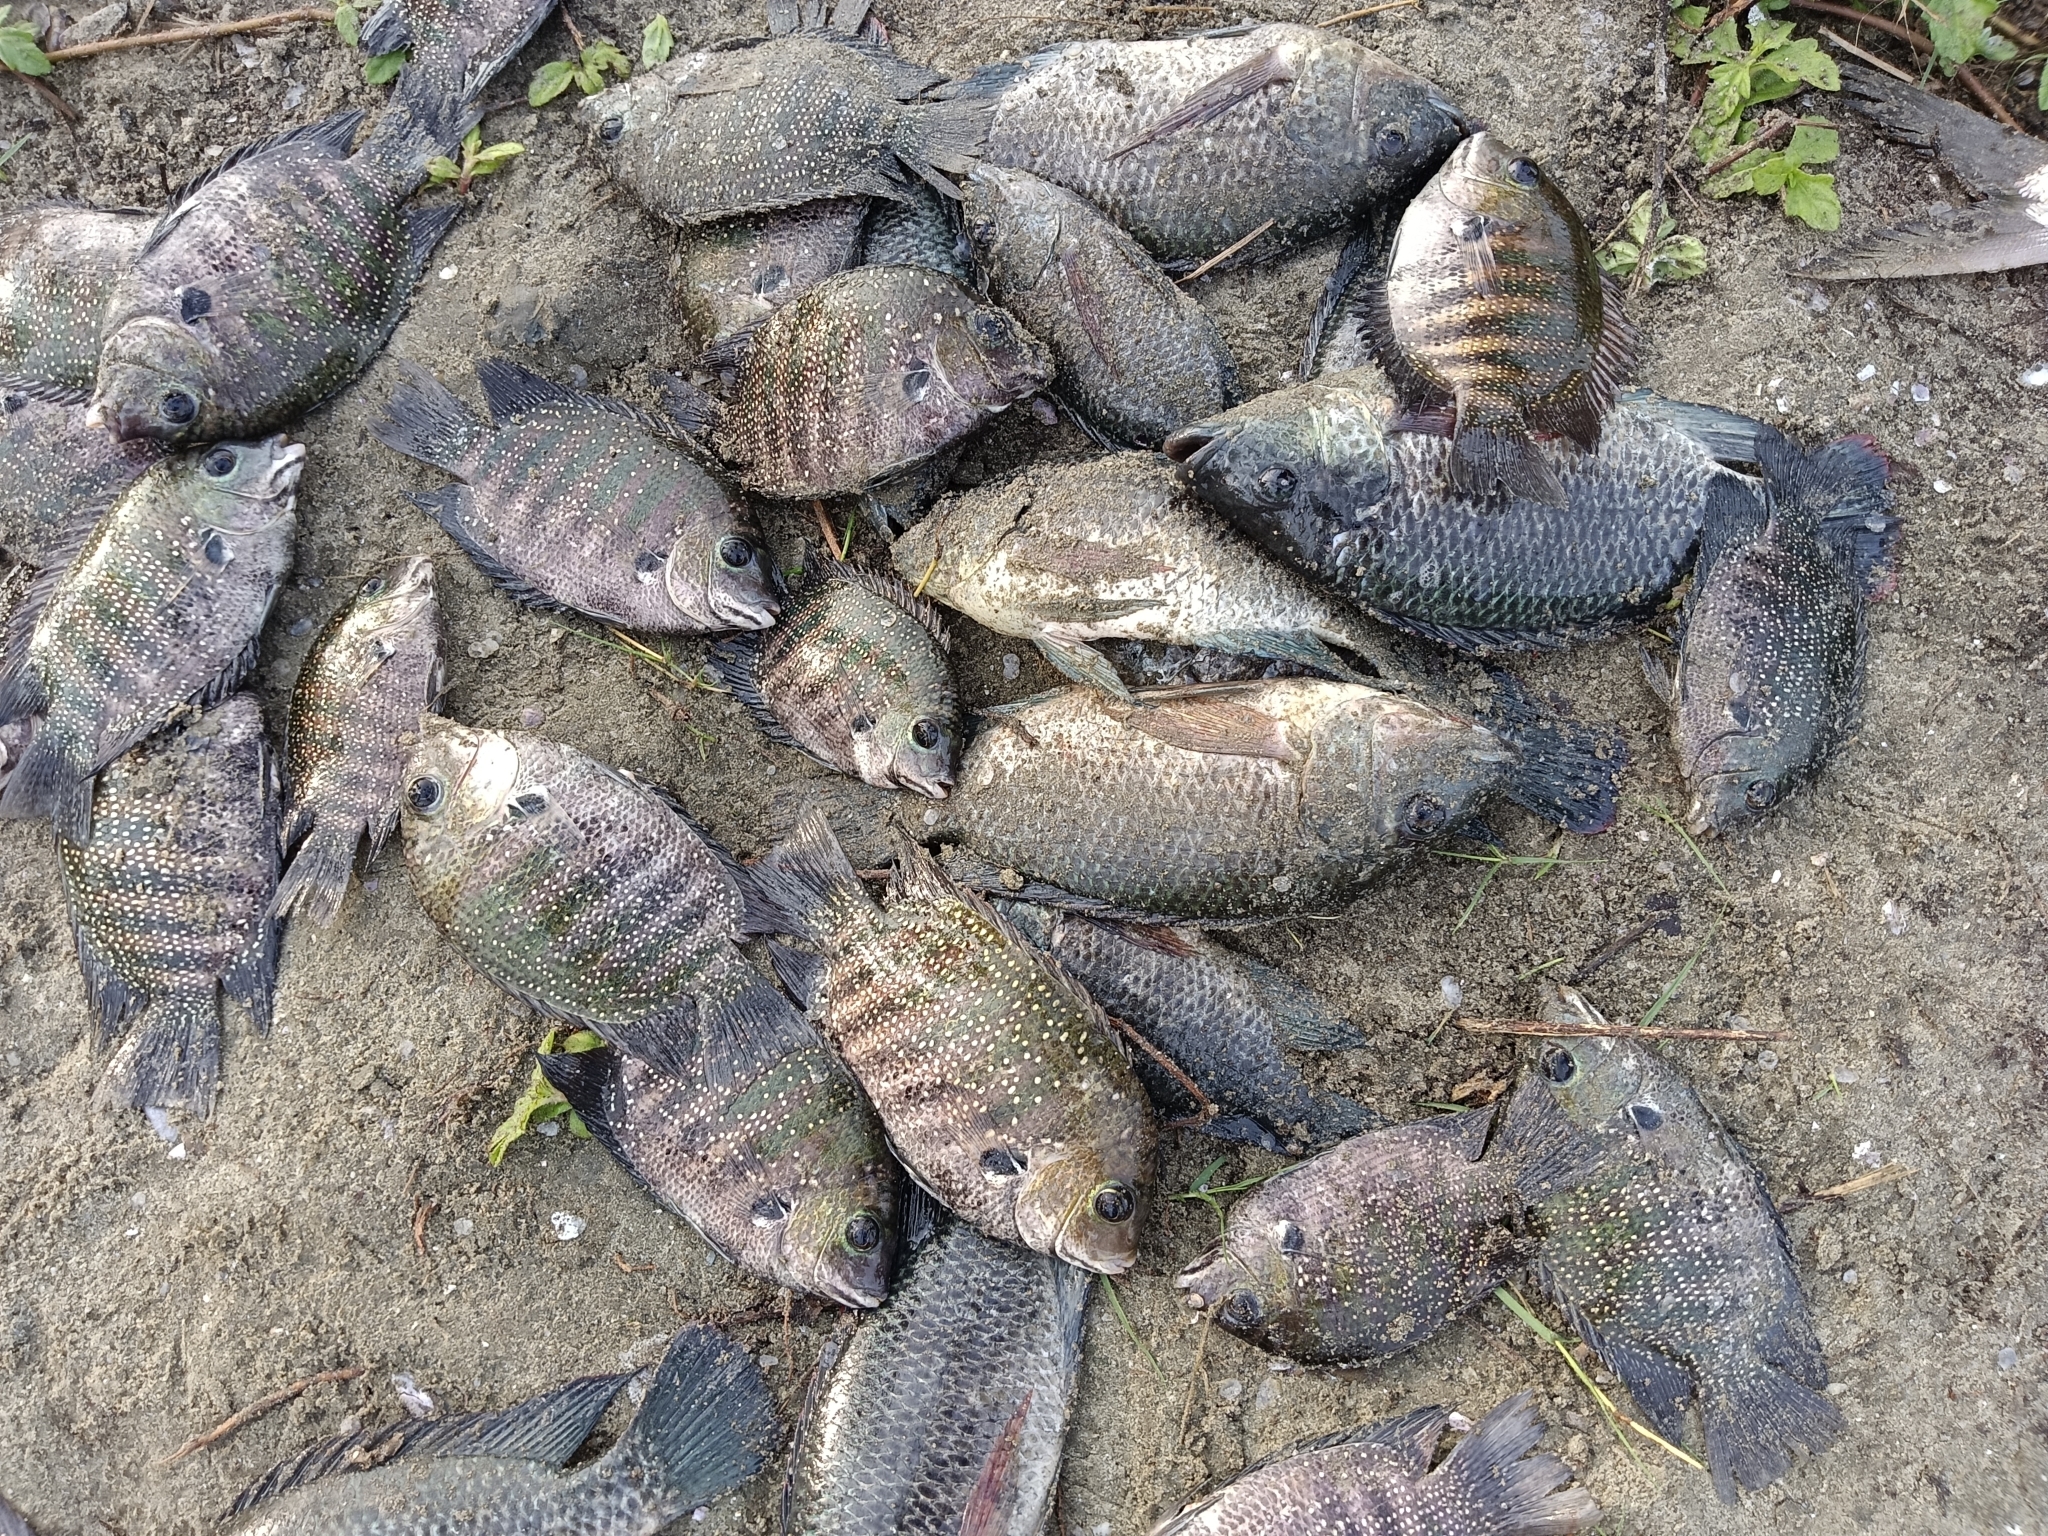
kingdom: Animalia
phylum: Chordata
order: Perciformes
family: Cichlidae
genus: Etroplus
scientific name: Etroplus suratensis
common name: Green chromide
